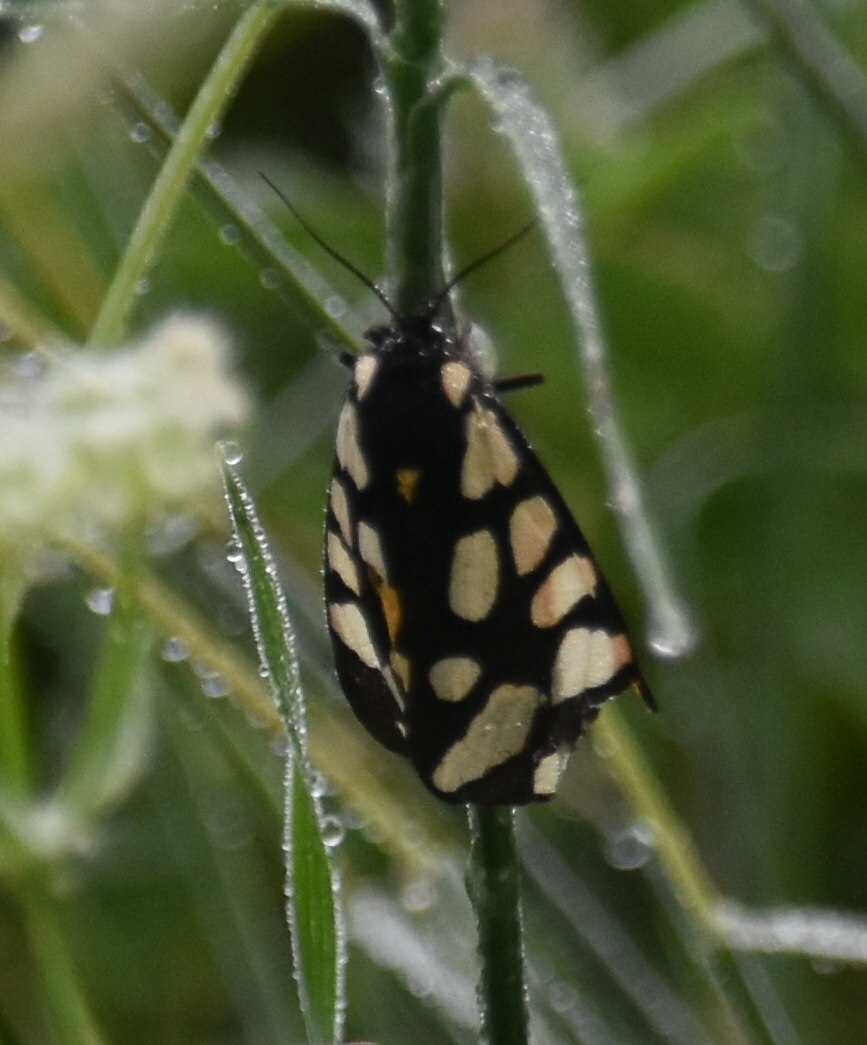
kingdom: Animalia
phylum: Arthropoda
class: Insecta
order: Lepidoptera
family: Erebidae
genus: Epicallia
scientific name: Epicallia villica
